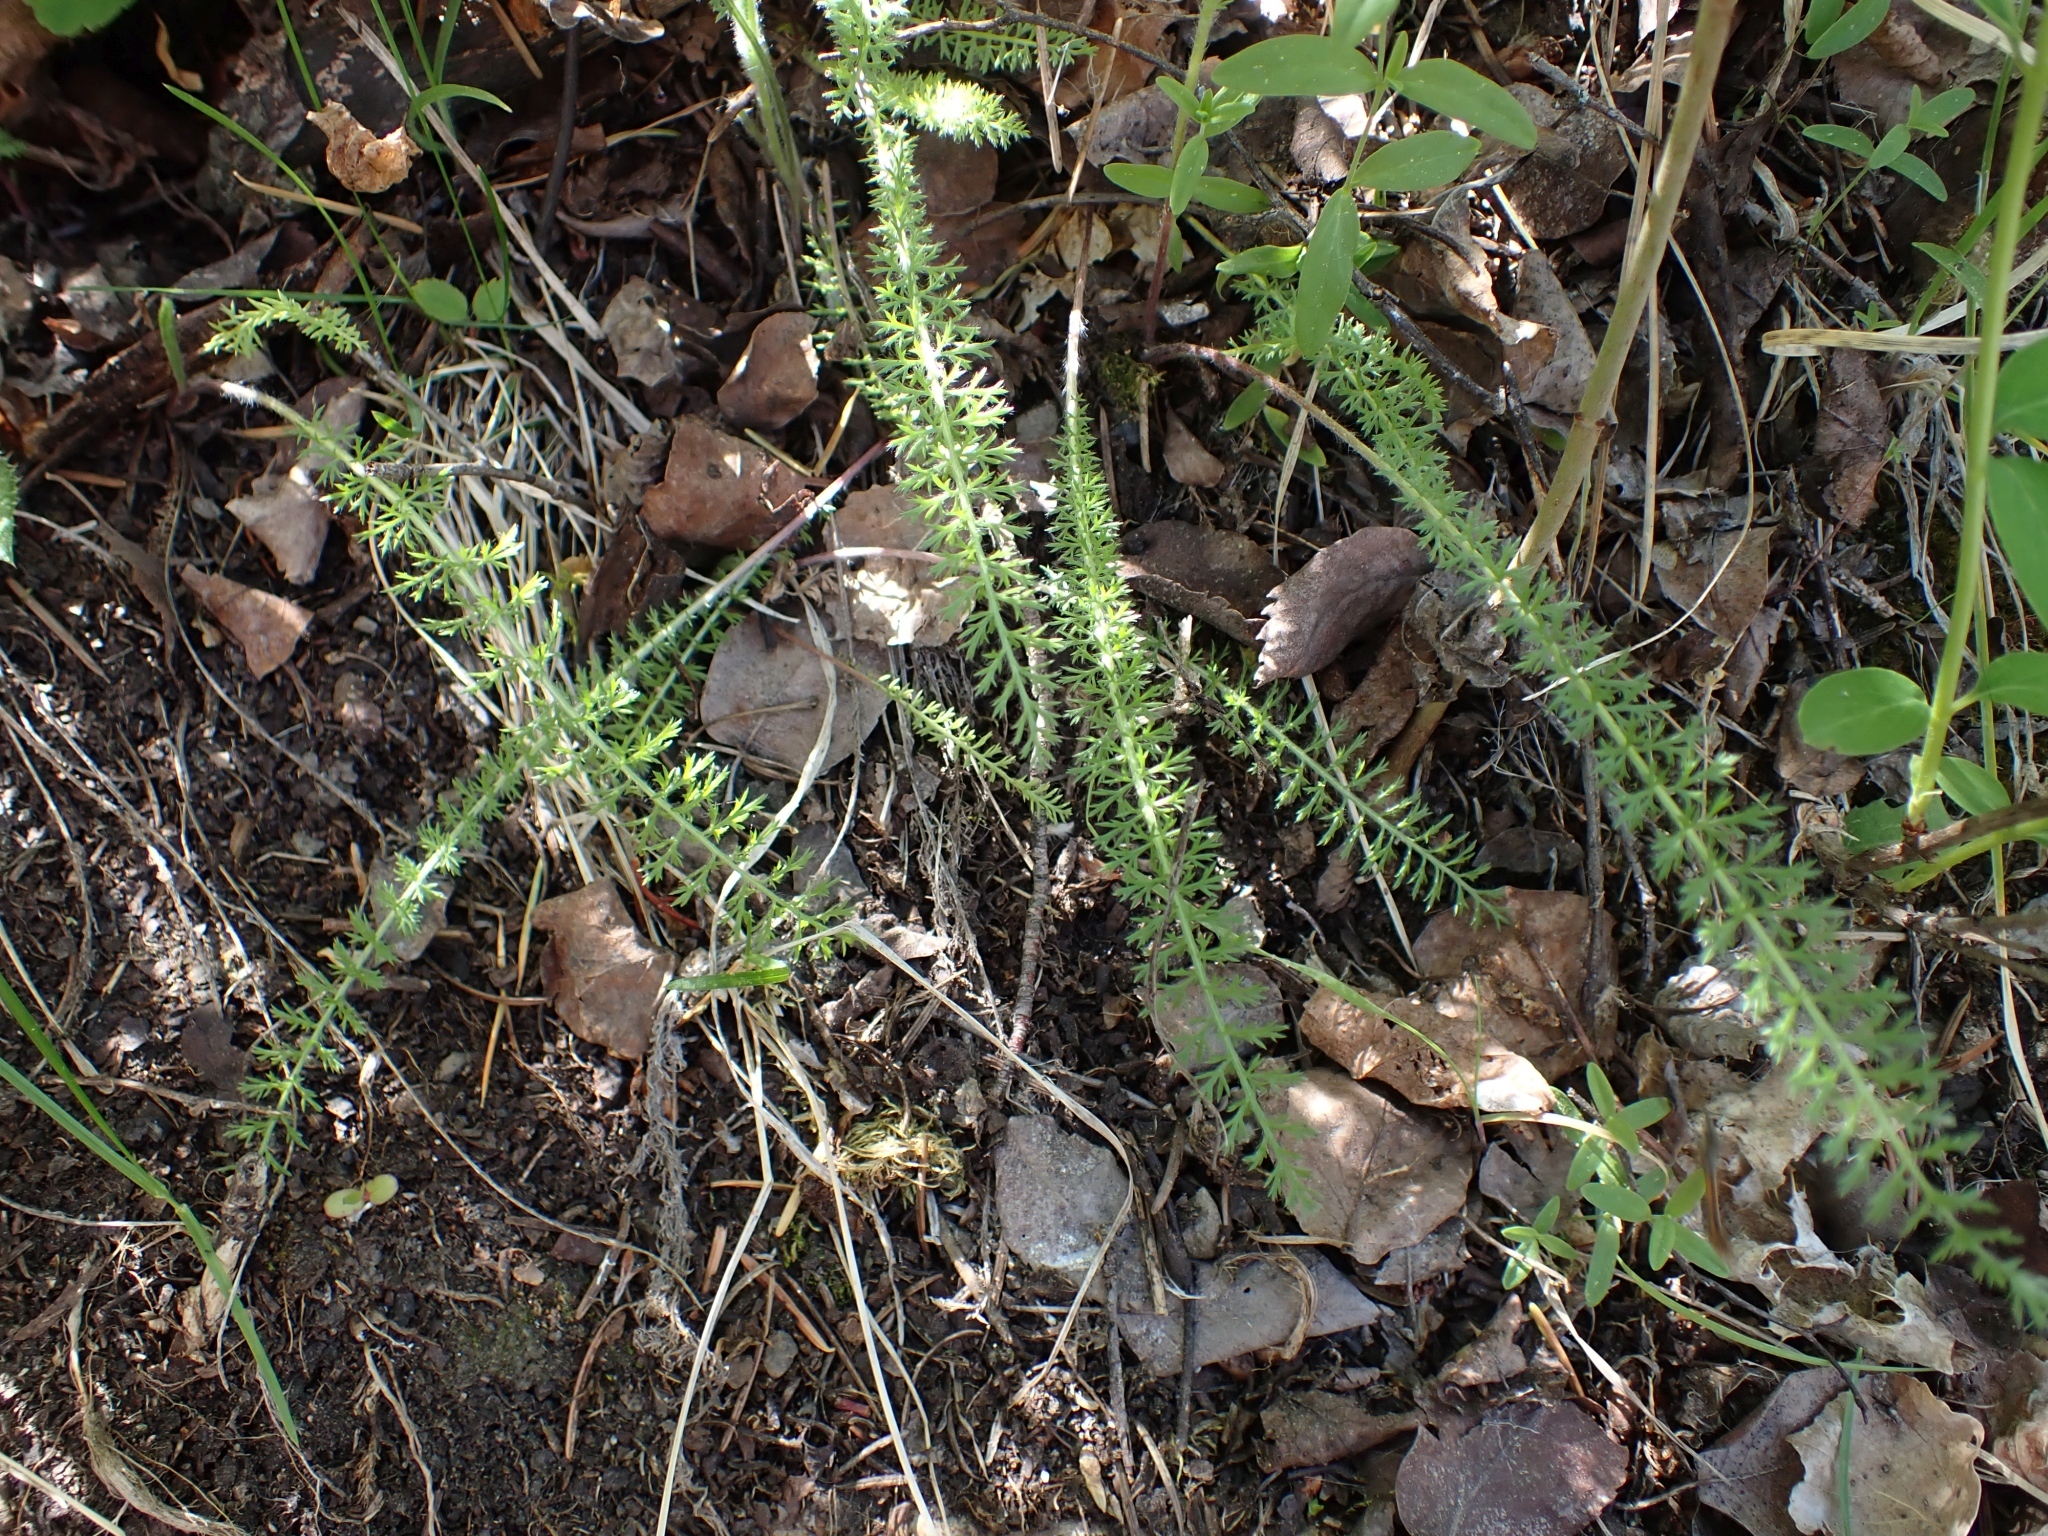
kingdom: Plantae
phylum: Tracheophyta
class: Magnoliopsida
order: Asterales
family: Asteraceae
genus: Achillea
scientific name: Achillea millefolium
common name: Yarrow
